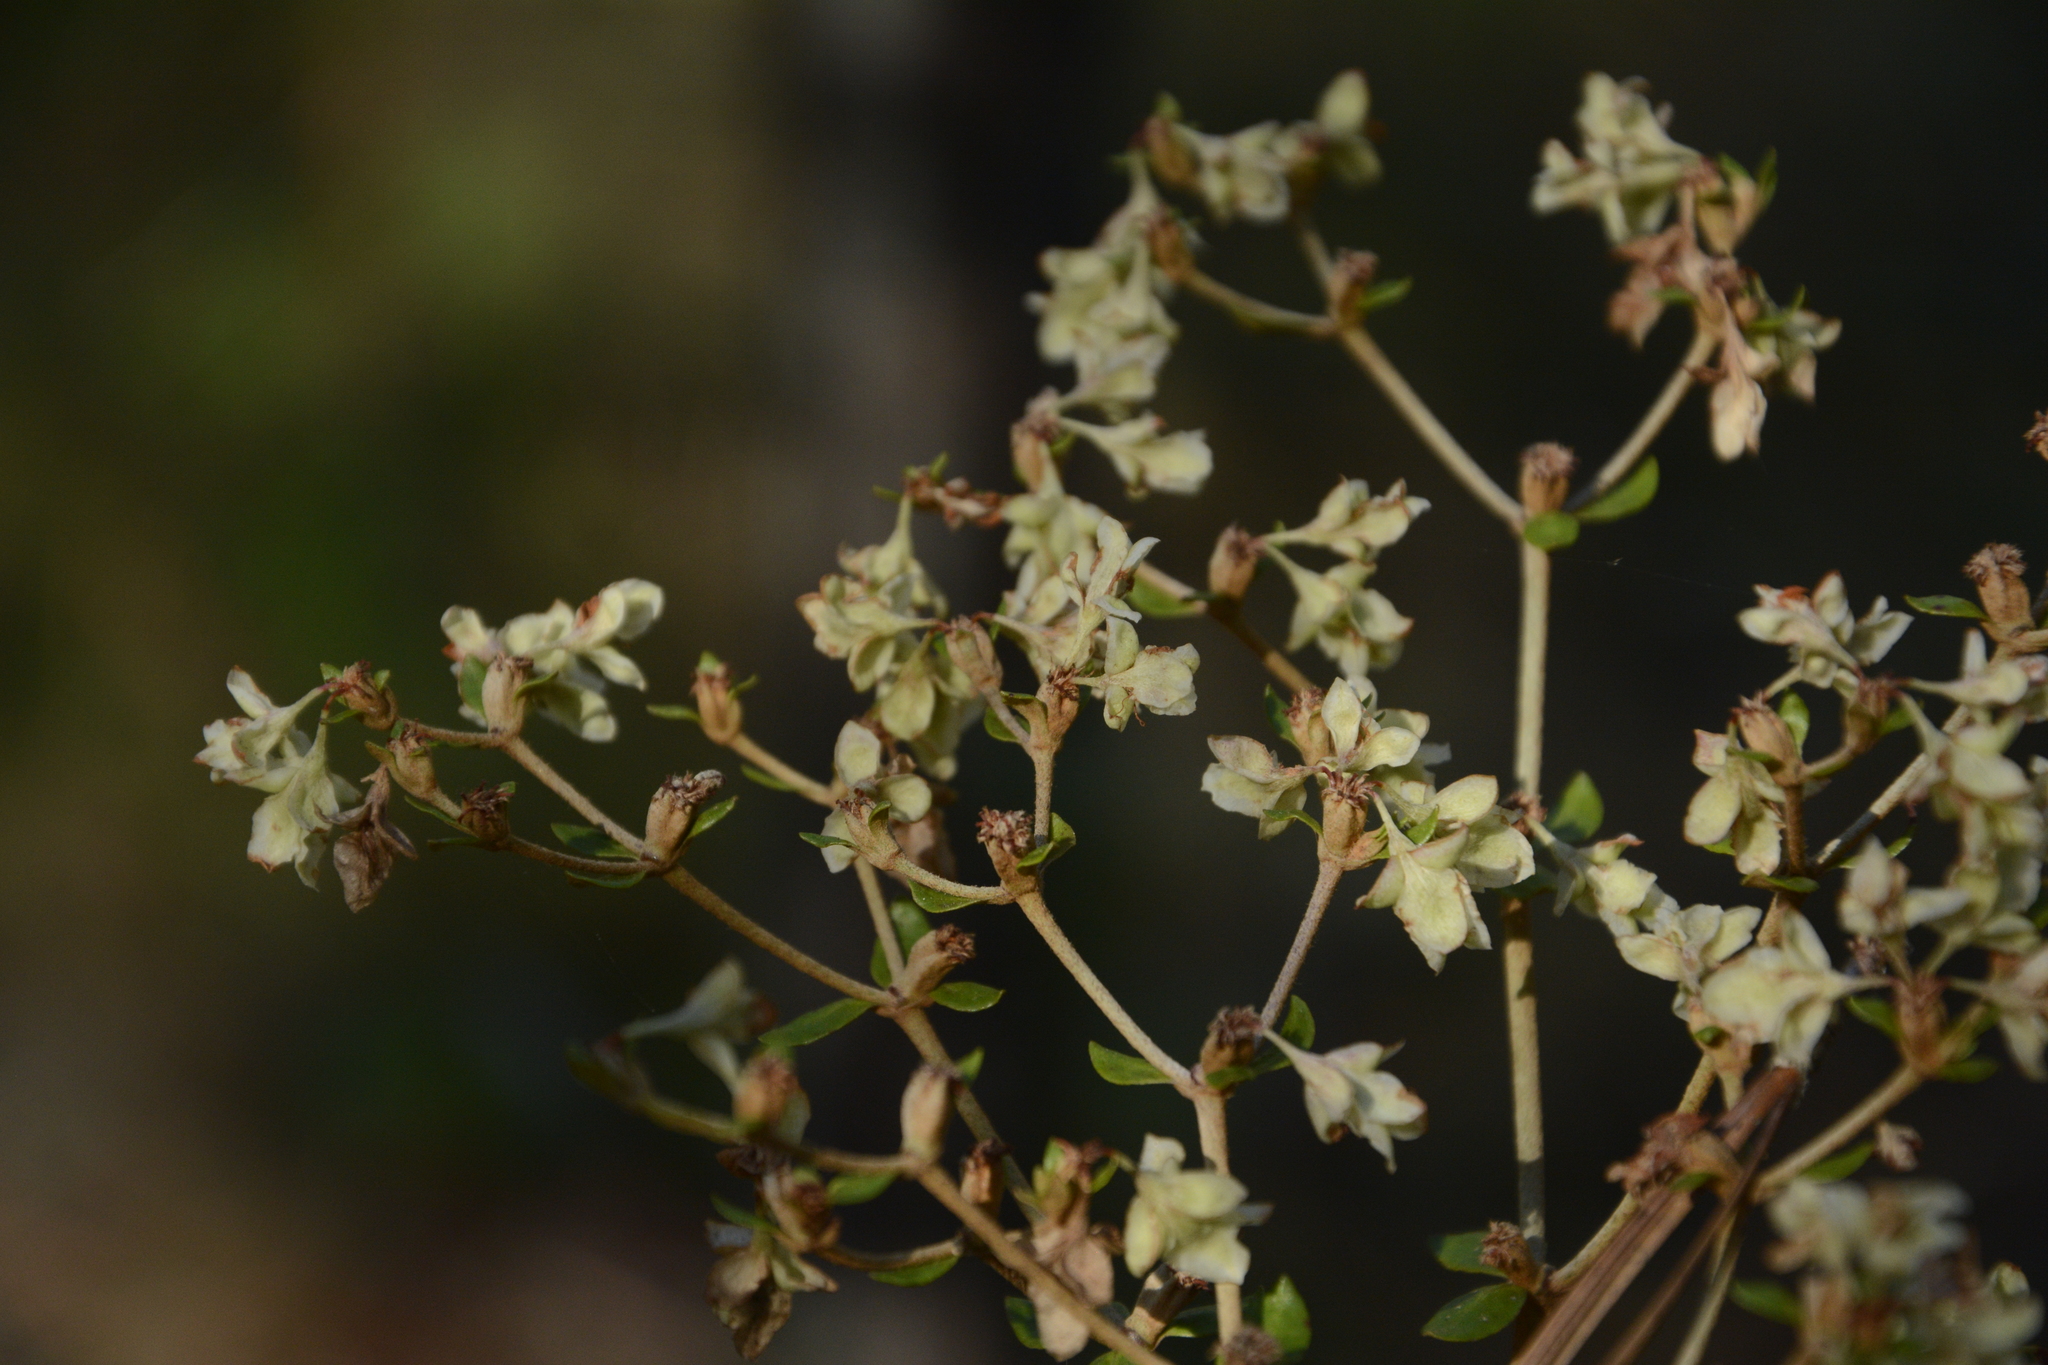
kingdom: Plantae
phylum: Tracheophyta
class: Magnoliopsida
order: Caryophyllales
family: Polygonaceae
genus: Eriogonum
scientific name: Eriogonum tomentosum
